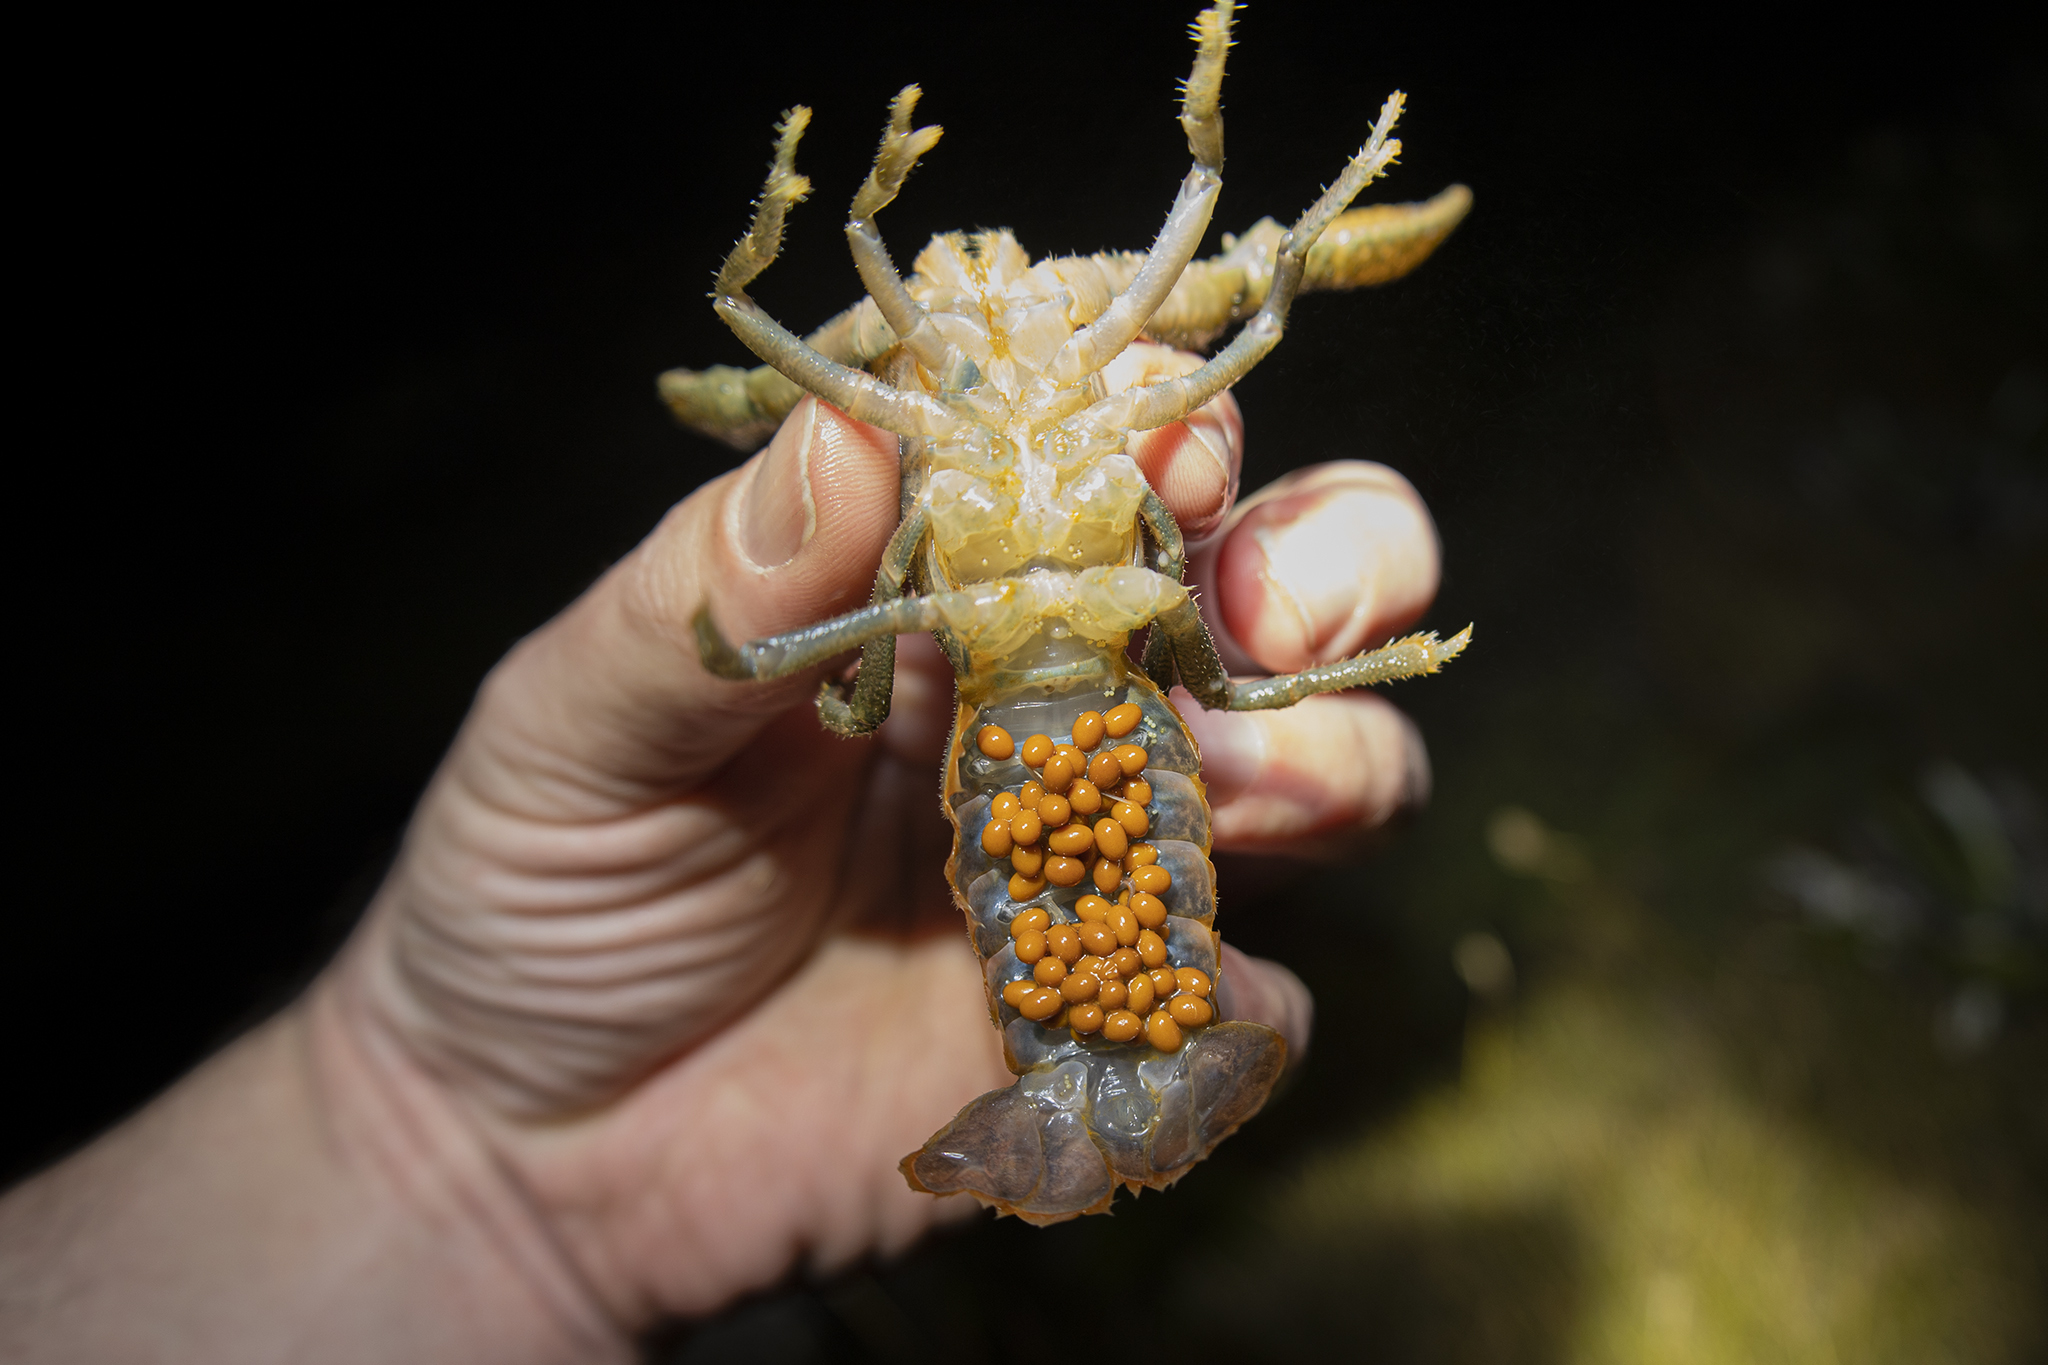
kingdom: Animalia
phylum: Arthropoda
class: Malacostraca
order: Decapoda
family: Parastacidae
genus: Paranephrops
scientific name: Paranephrops planifrons
